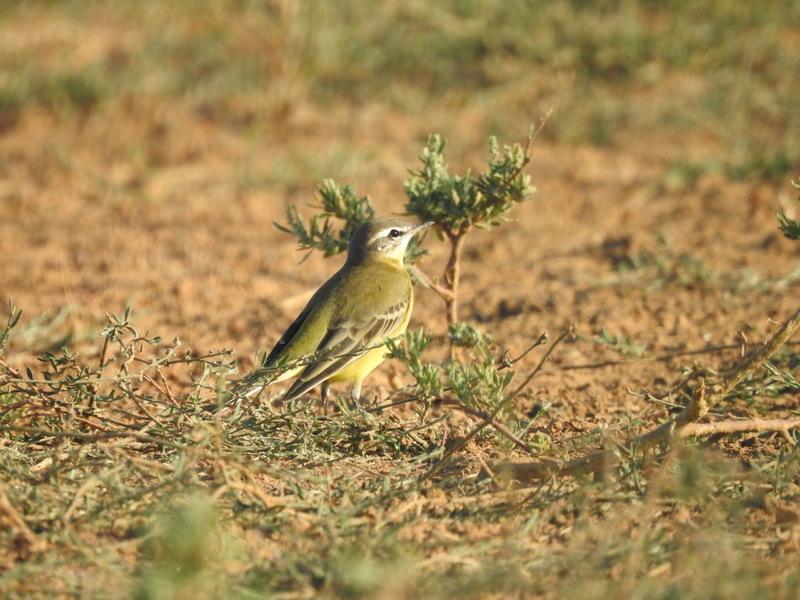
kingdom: Animalia
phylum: Chordata
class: Aves
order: Passeriformes
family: Motacillidae
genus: Motacilla
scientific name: Motacilla flava
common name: Western yellow wagtail
